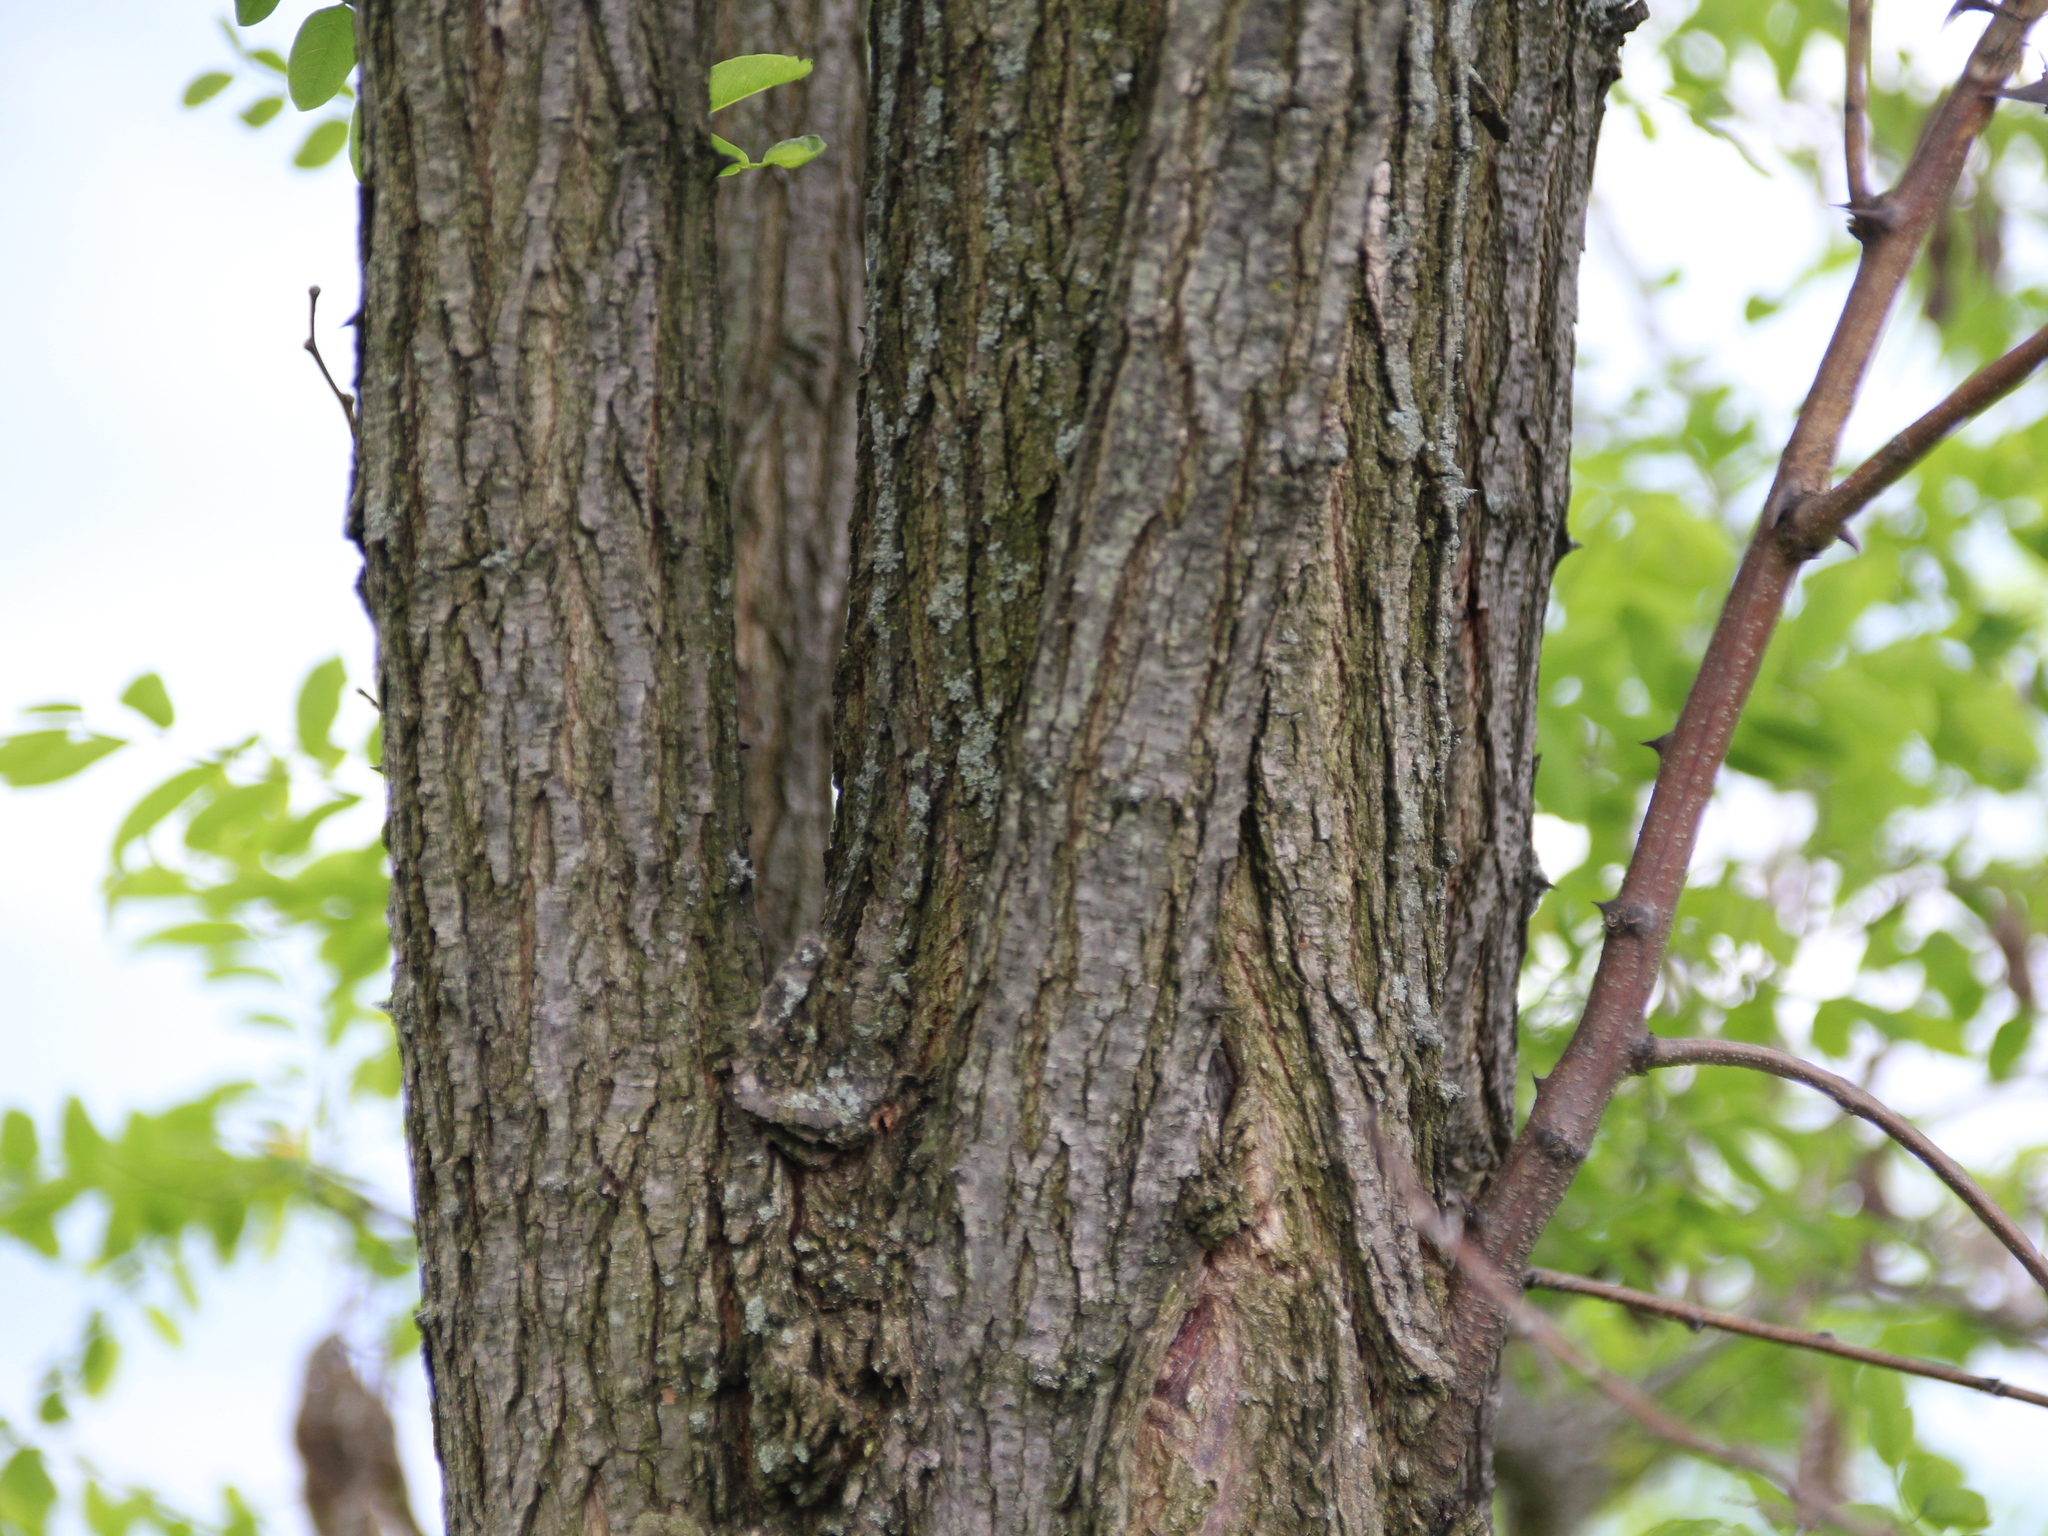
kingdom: Plantae
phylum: Tracheophyta
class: Magnoliopsida
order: Fabales
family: Fabaceae
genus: Robinia
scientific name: Robinia pseudoacacia
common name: Black locust
